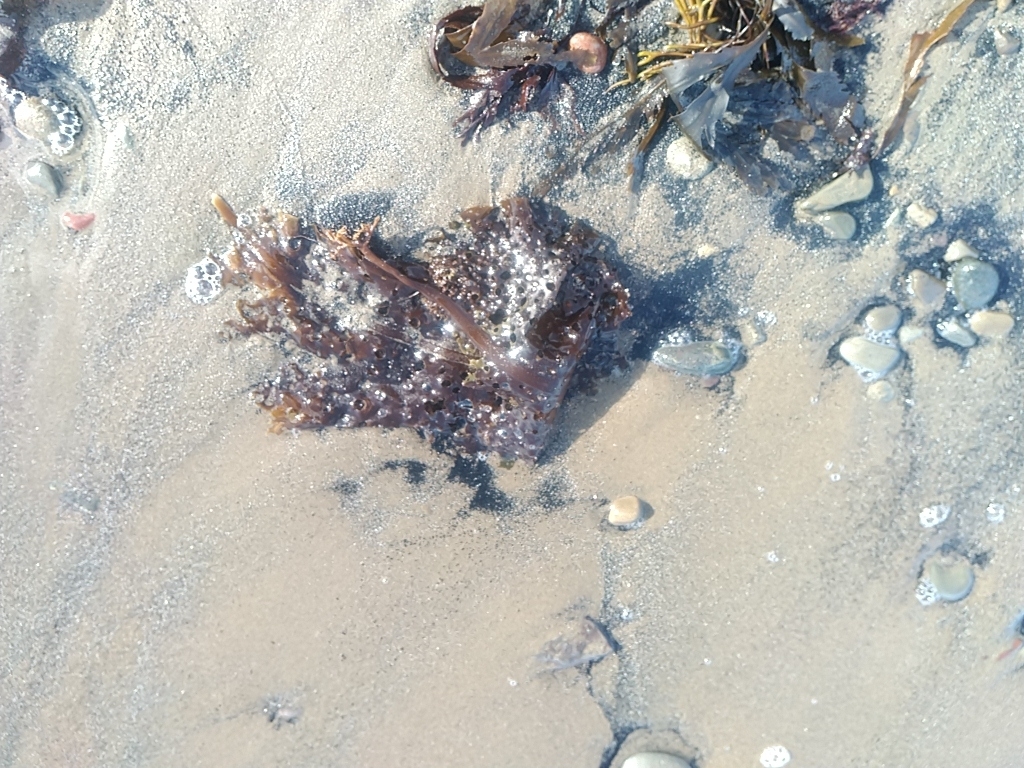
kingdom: Chromista
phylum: Ochrophyta
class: Phaeophyceae
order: Laminariales
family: Costariaceae
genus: Agarum
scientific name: Agarum clathratum
